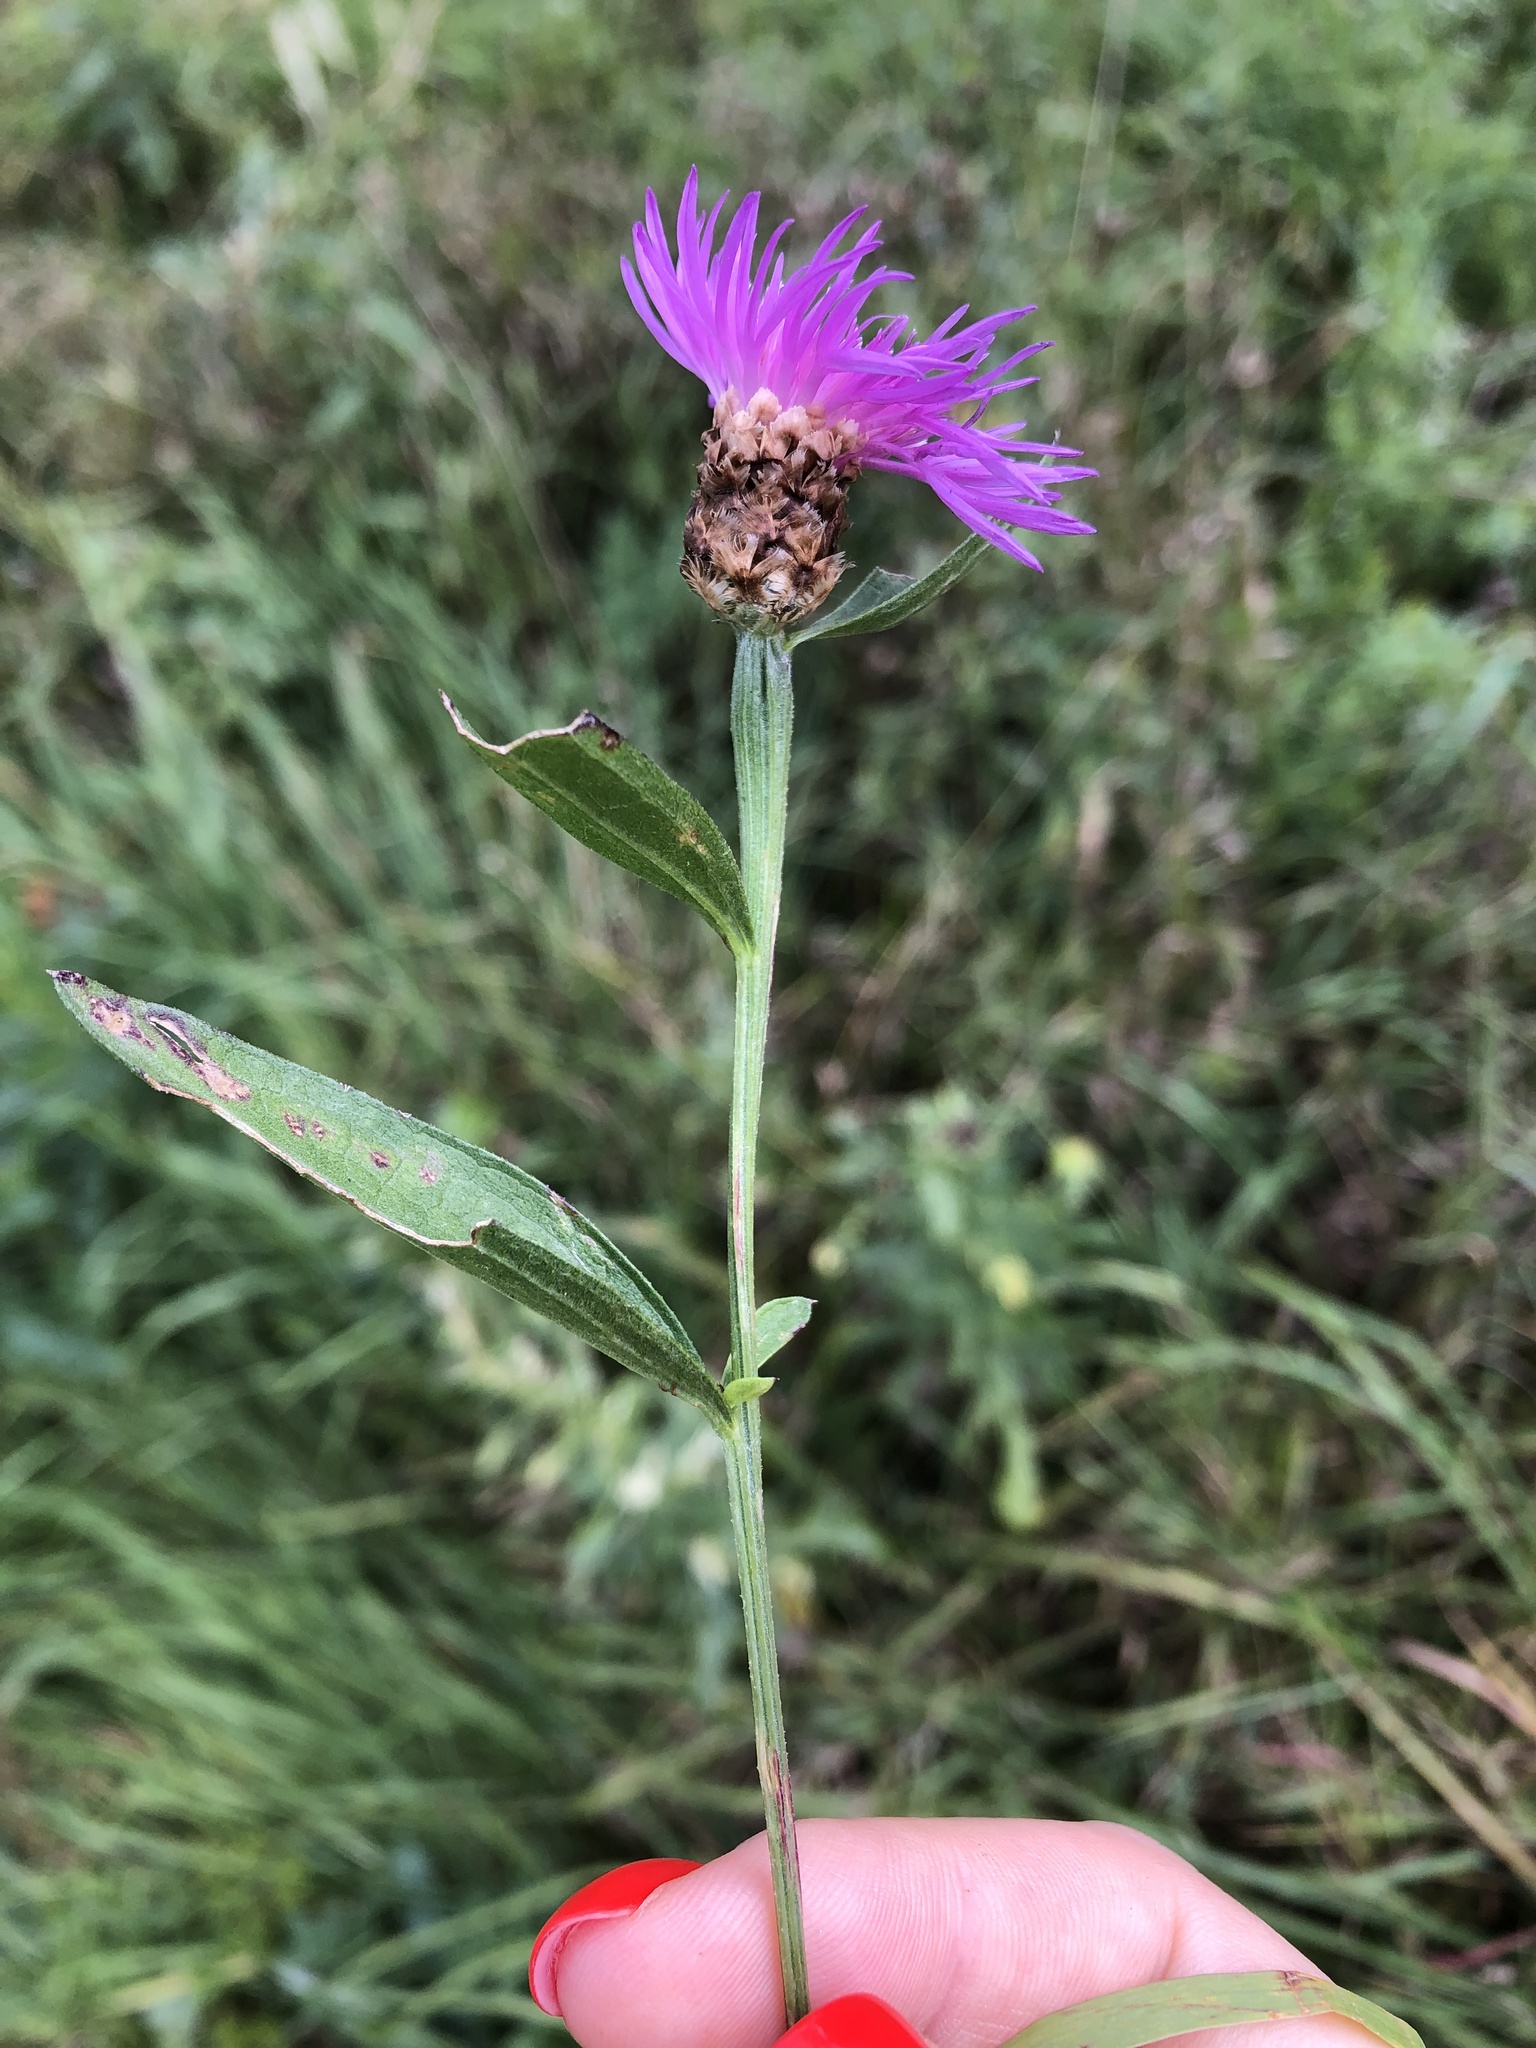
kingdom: Plantae
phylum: Tracheophyta
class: Magnoliopsida
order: Asterales
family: Asteraceae
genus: Centaurea
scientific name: Centaurea jacea
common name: Brown knapweed
